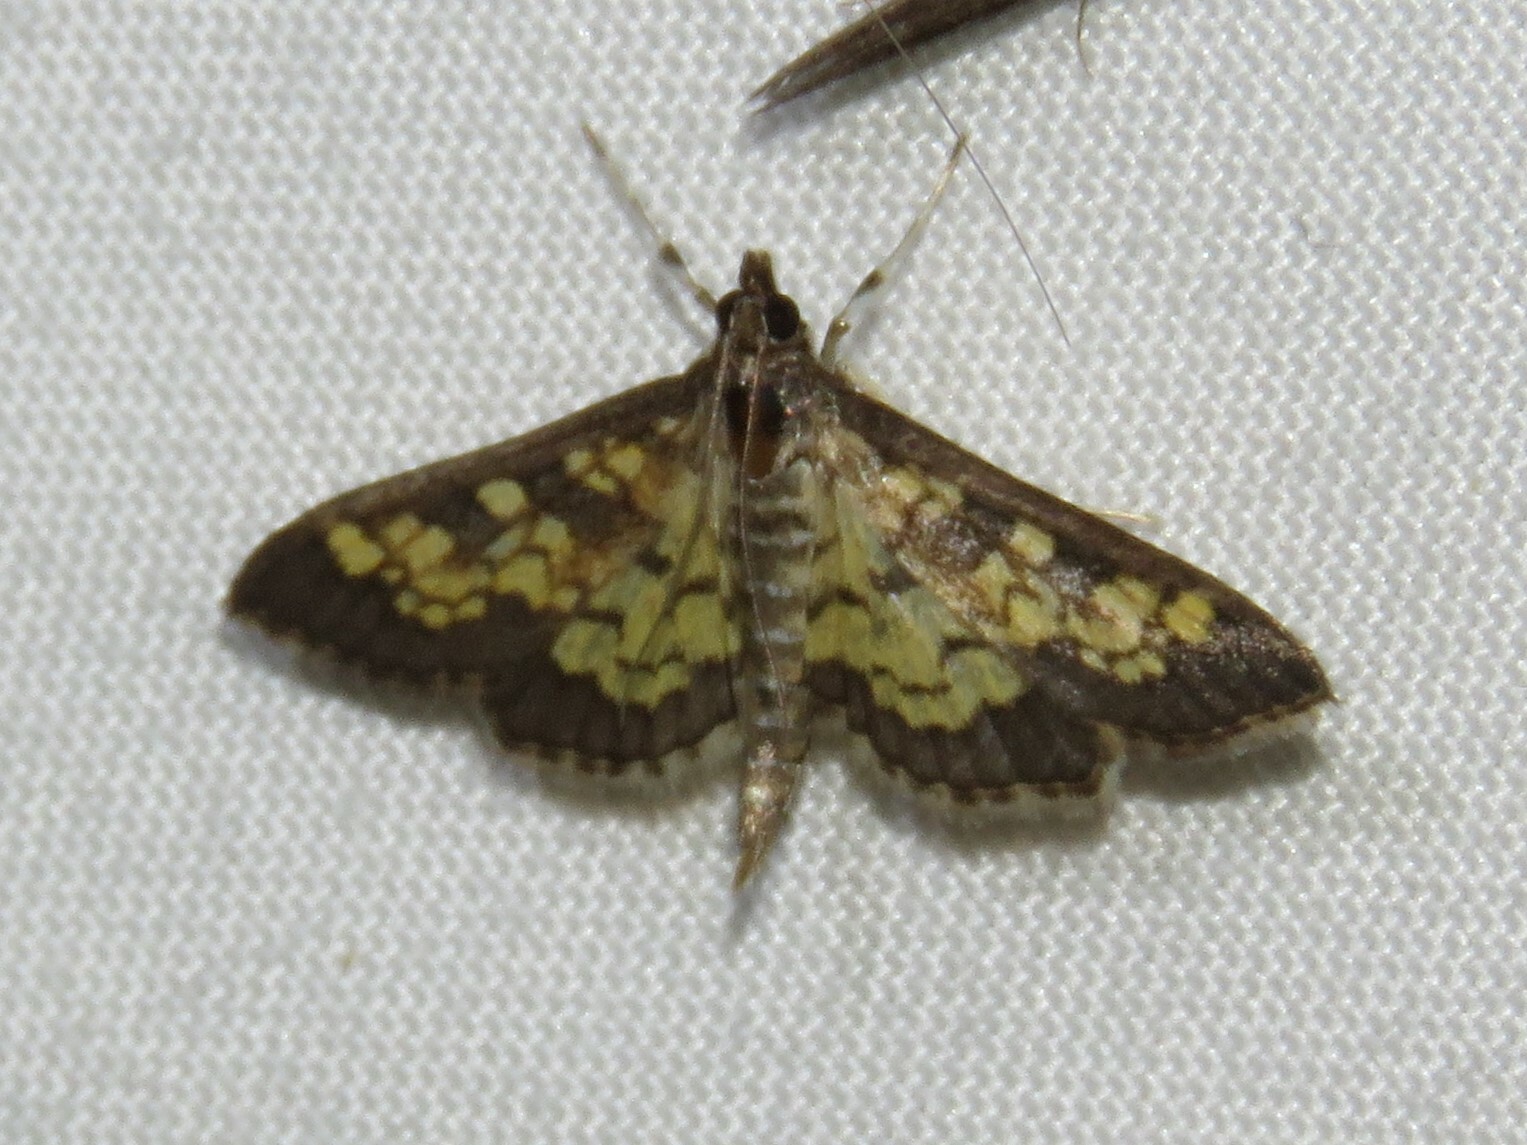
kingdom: Animalia
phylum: Arthropoda
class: Insecta
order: Lepidoptera
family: Crambidae
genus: Epipagis
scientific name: Epipagis adipaloides
